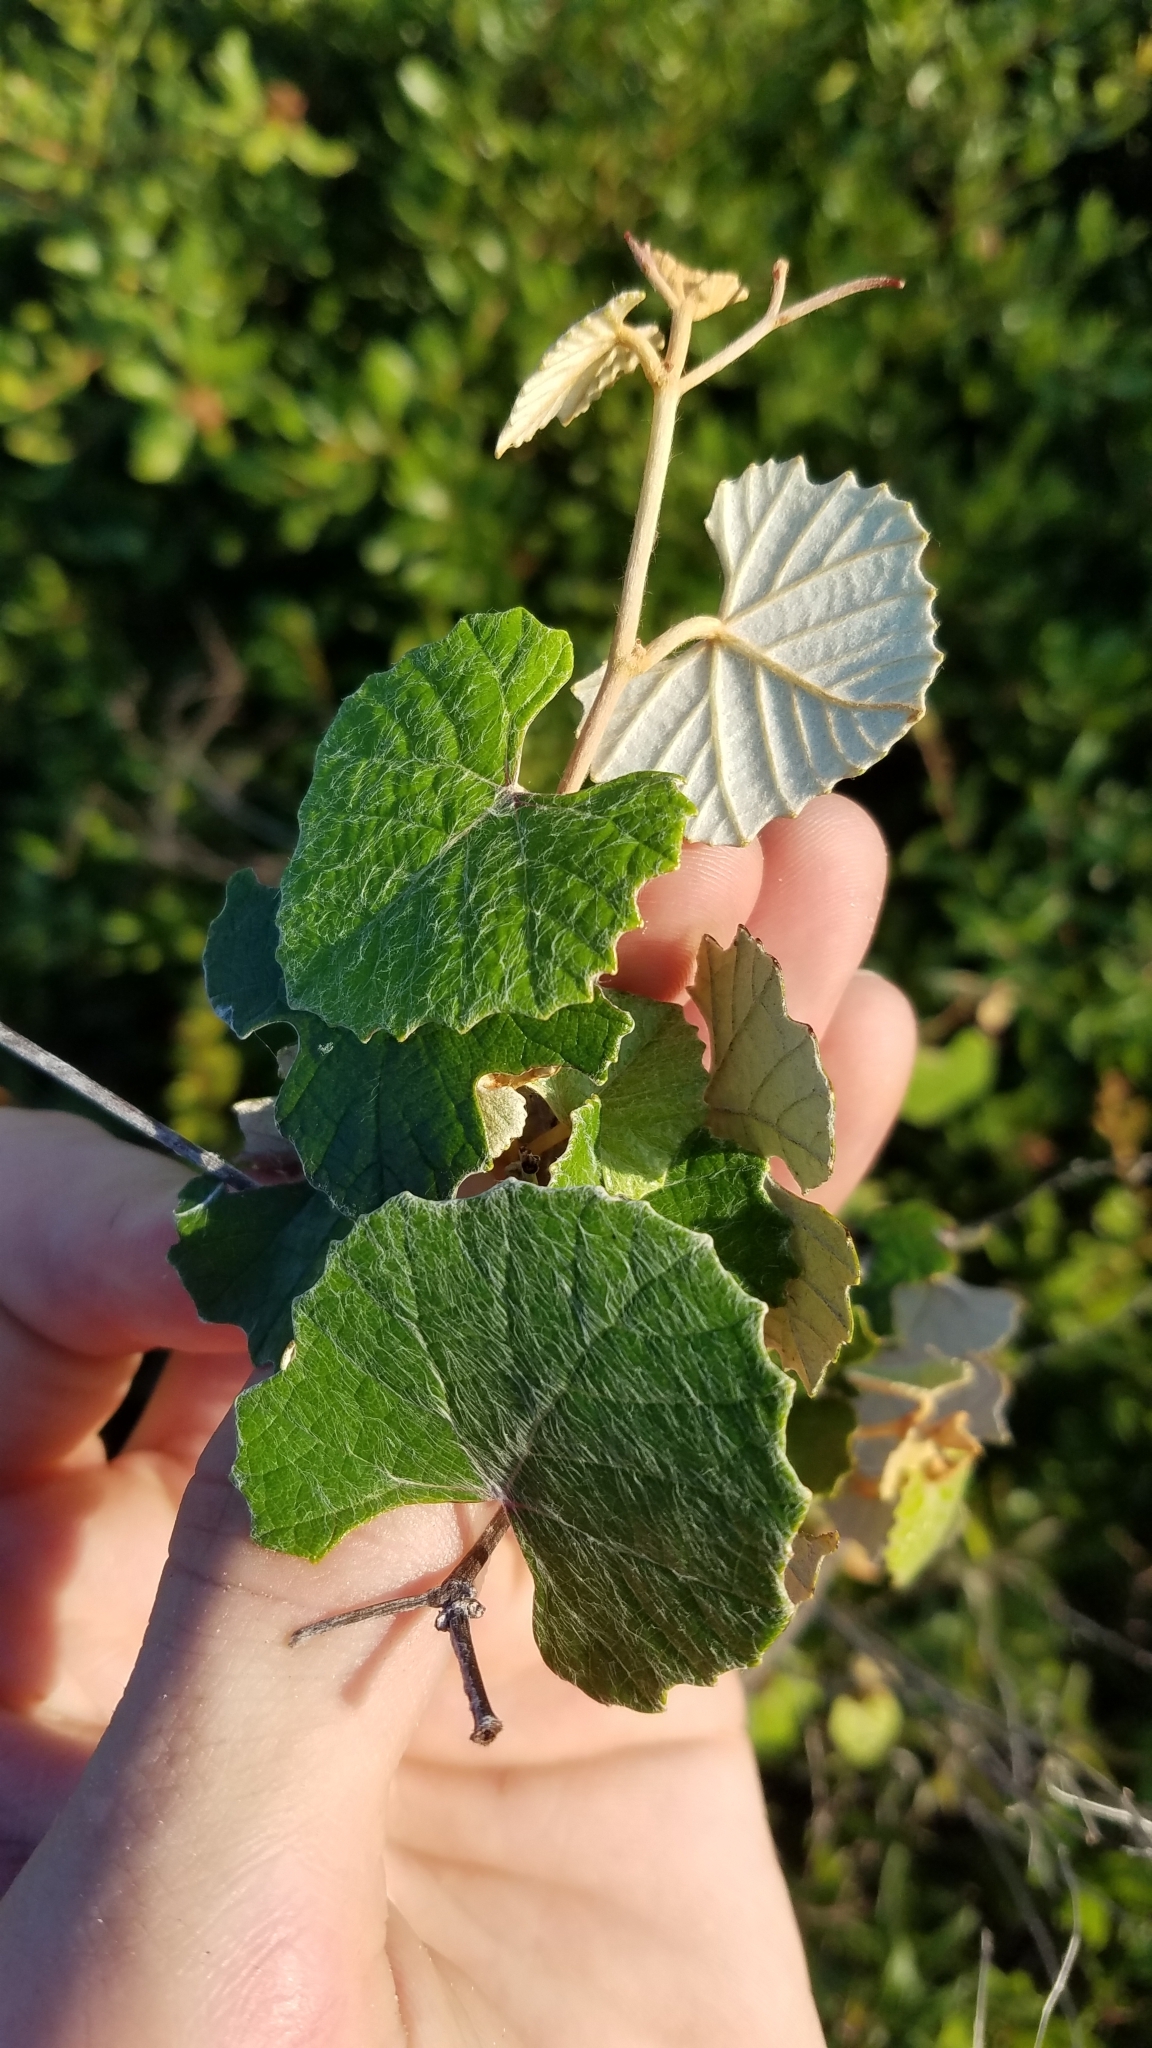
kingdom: Plantae
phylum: Tracheophyta
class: Magnoliopsida
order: Vitales
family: Vitaceae
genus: Vitis
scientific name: Vitis shuttleworthii
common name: Caloosa grape
